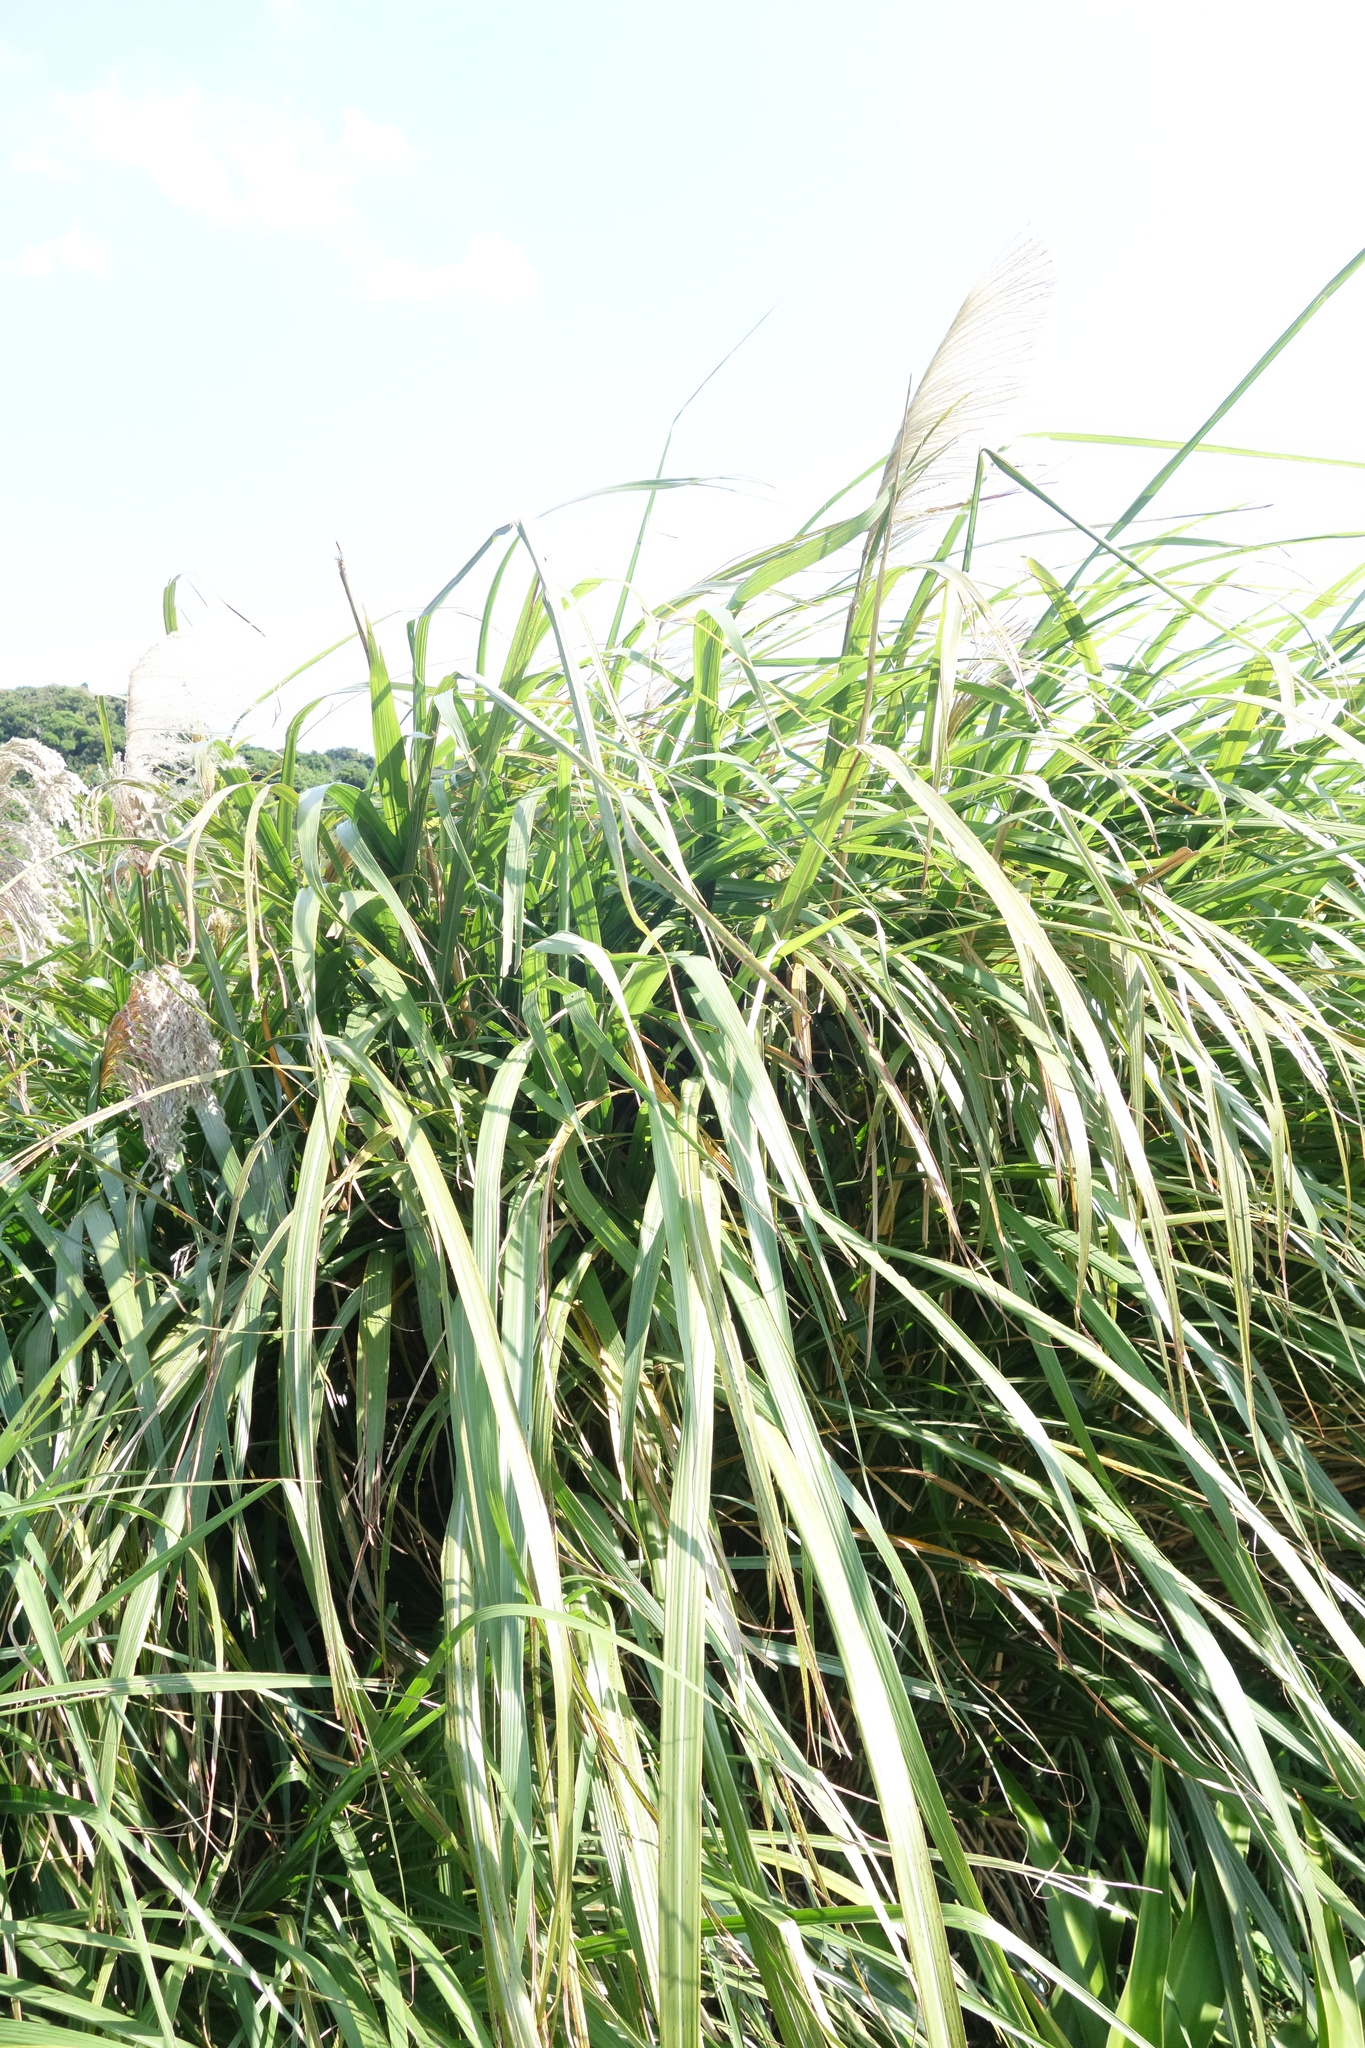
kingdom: Plantae
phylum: Tracheophyta
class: Liliopsida
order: Poales
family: Poaceae
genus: Miscanthus
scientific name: Miscanthus sinensis
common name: Chinese silvergrass
